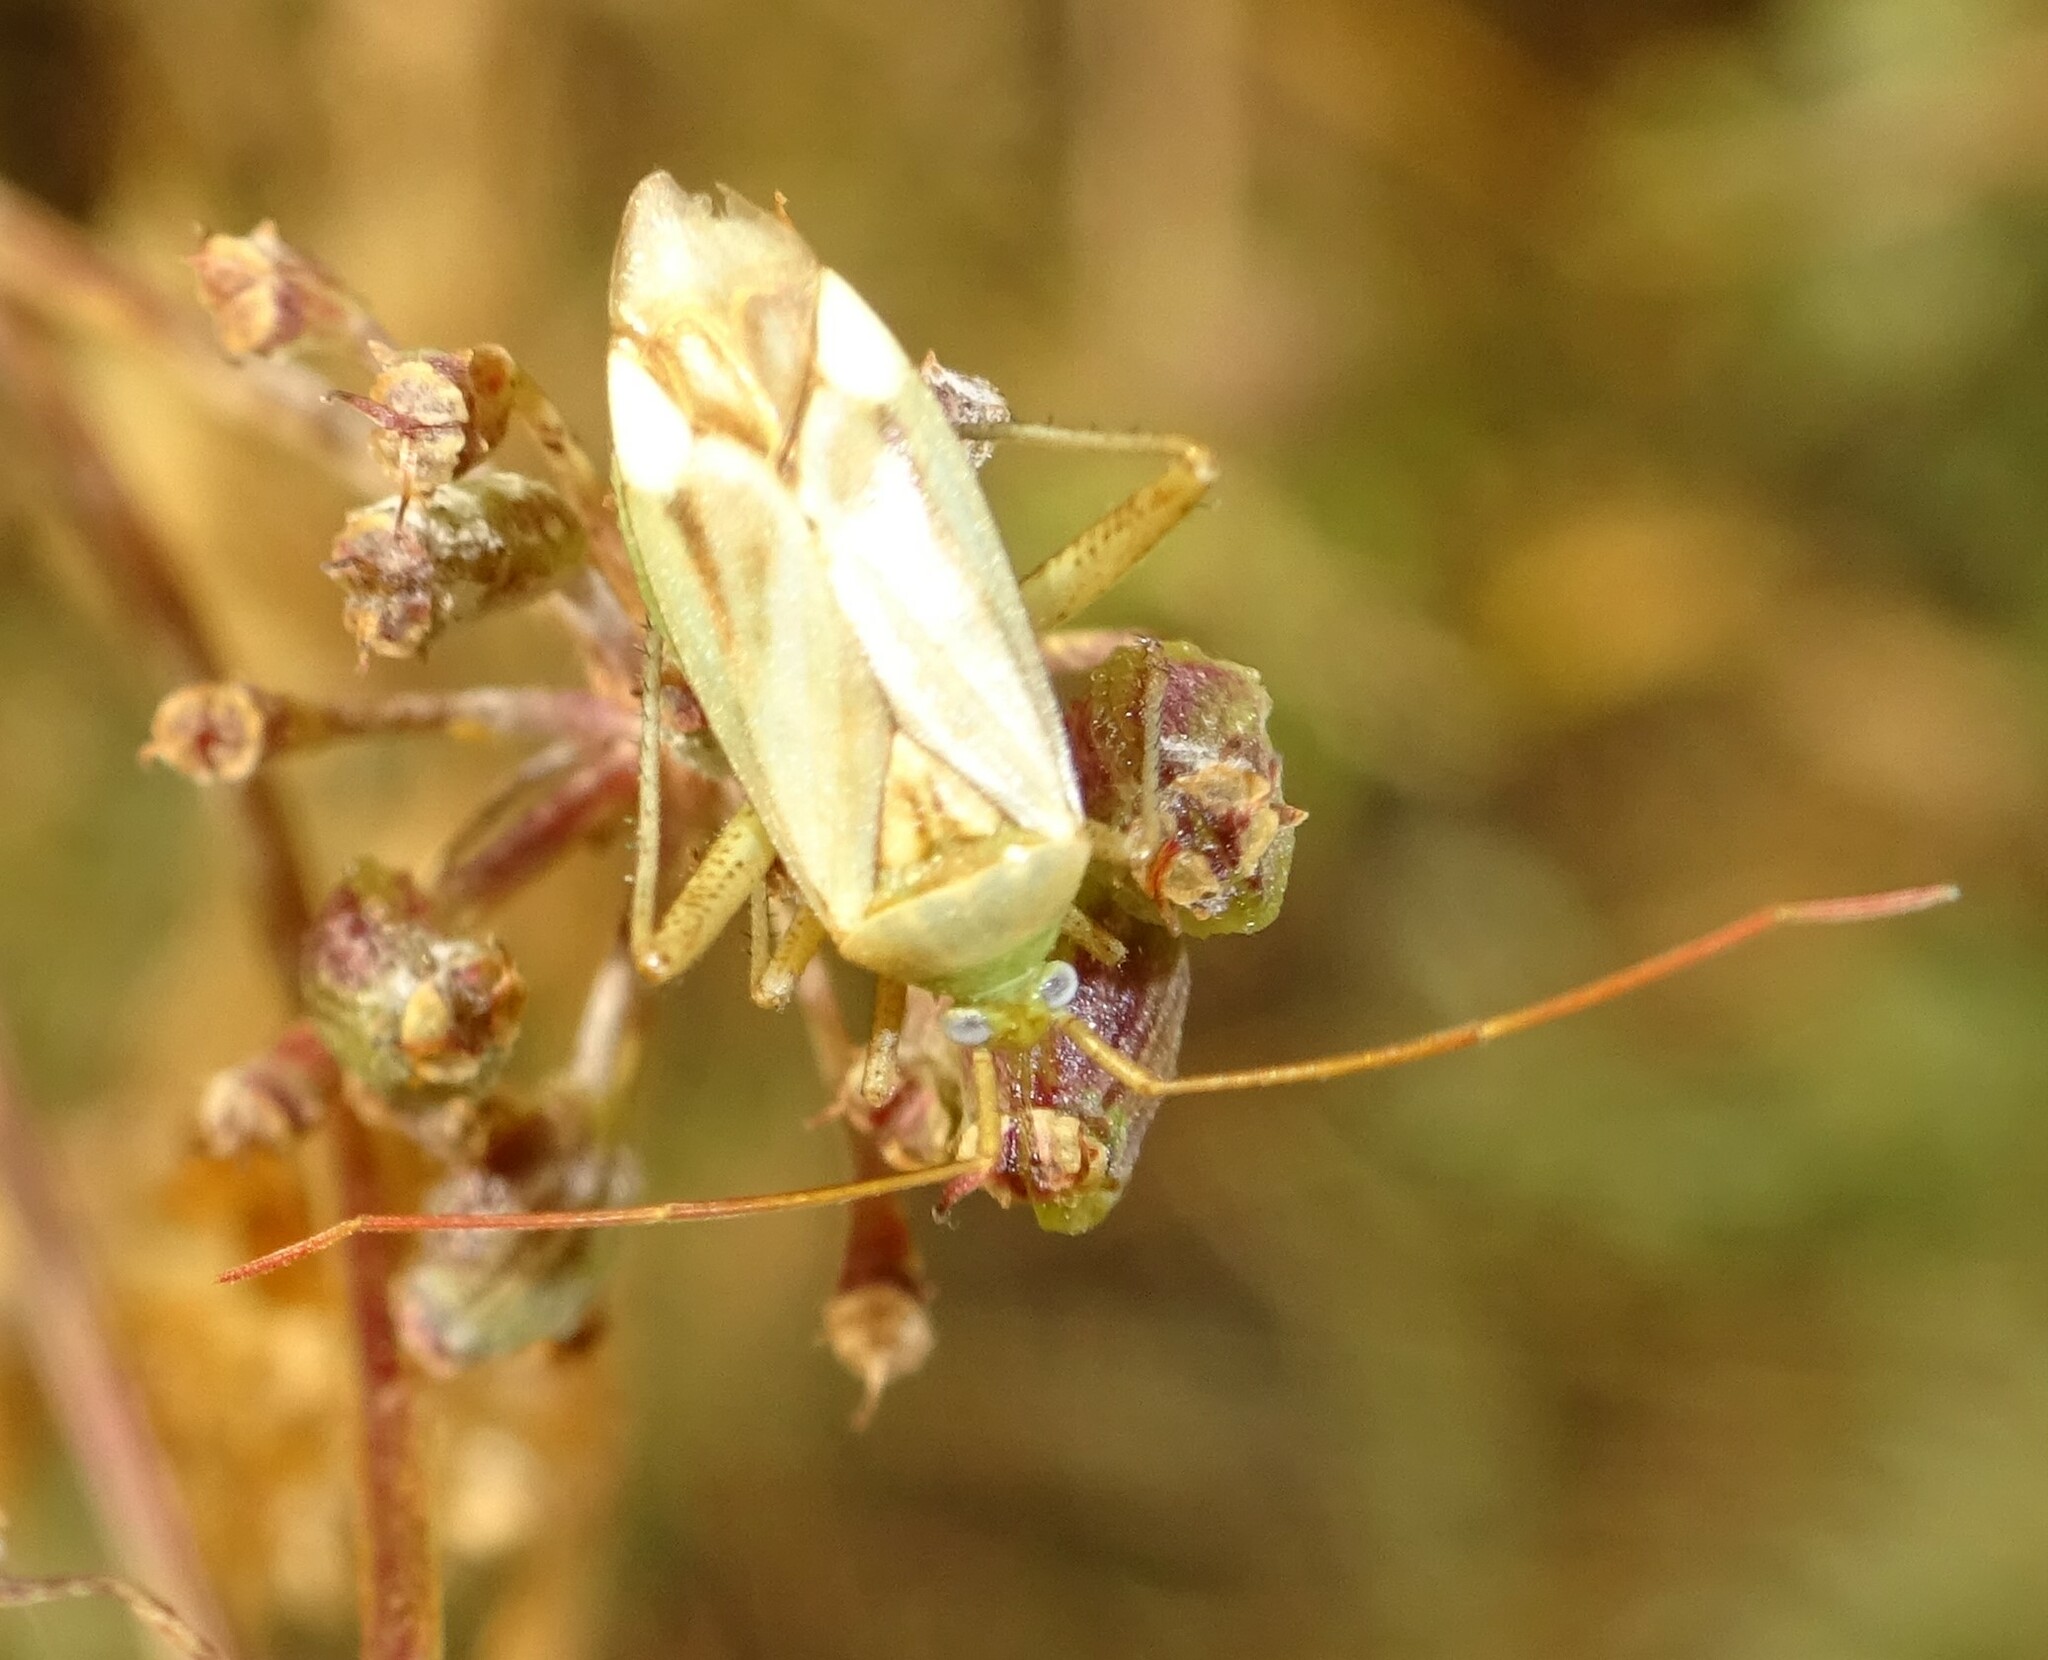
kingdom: Animalia
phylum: Arthropoda
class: Insecta
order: Hemiptera
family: Miridae
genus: Adelphocoris
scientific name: Adelphocoris lineolatus
